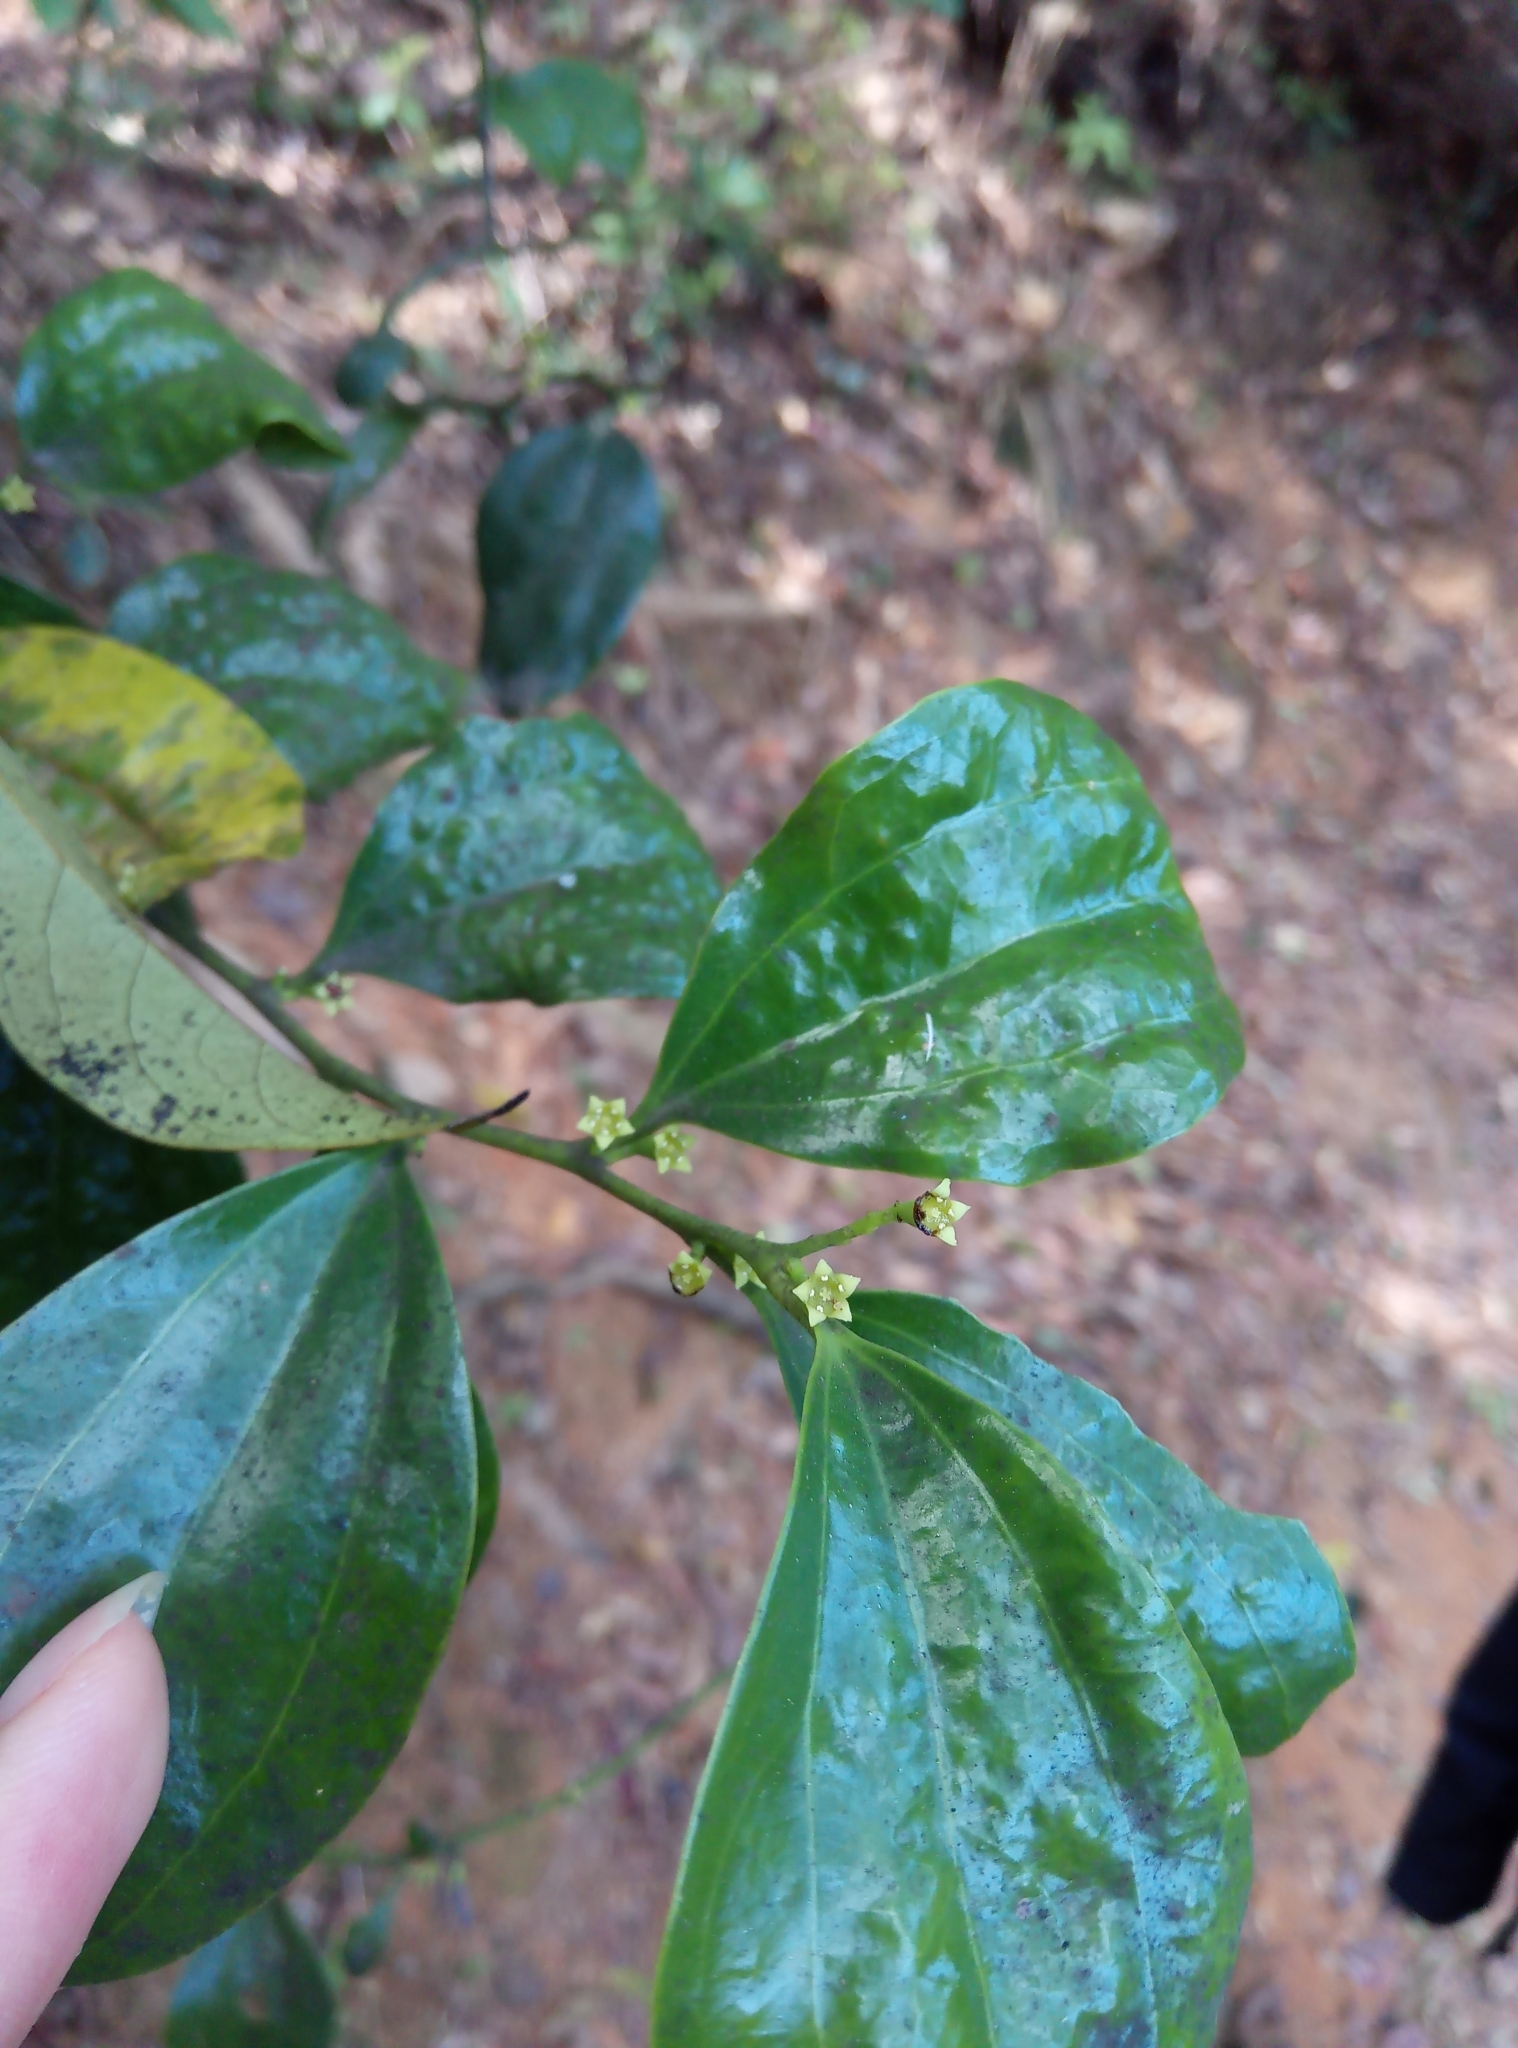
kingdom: Plantae
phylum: Tracheophyta
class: Magnoliopsida
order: Santalales
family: Amphorogynaceae
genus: Dendrotrophe
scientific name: Dendrotrophe varians
